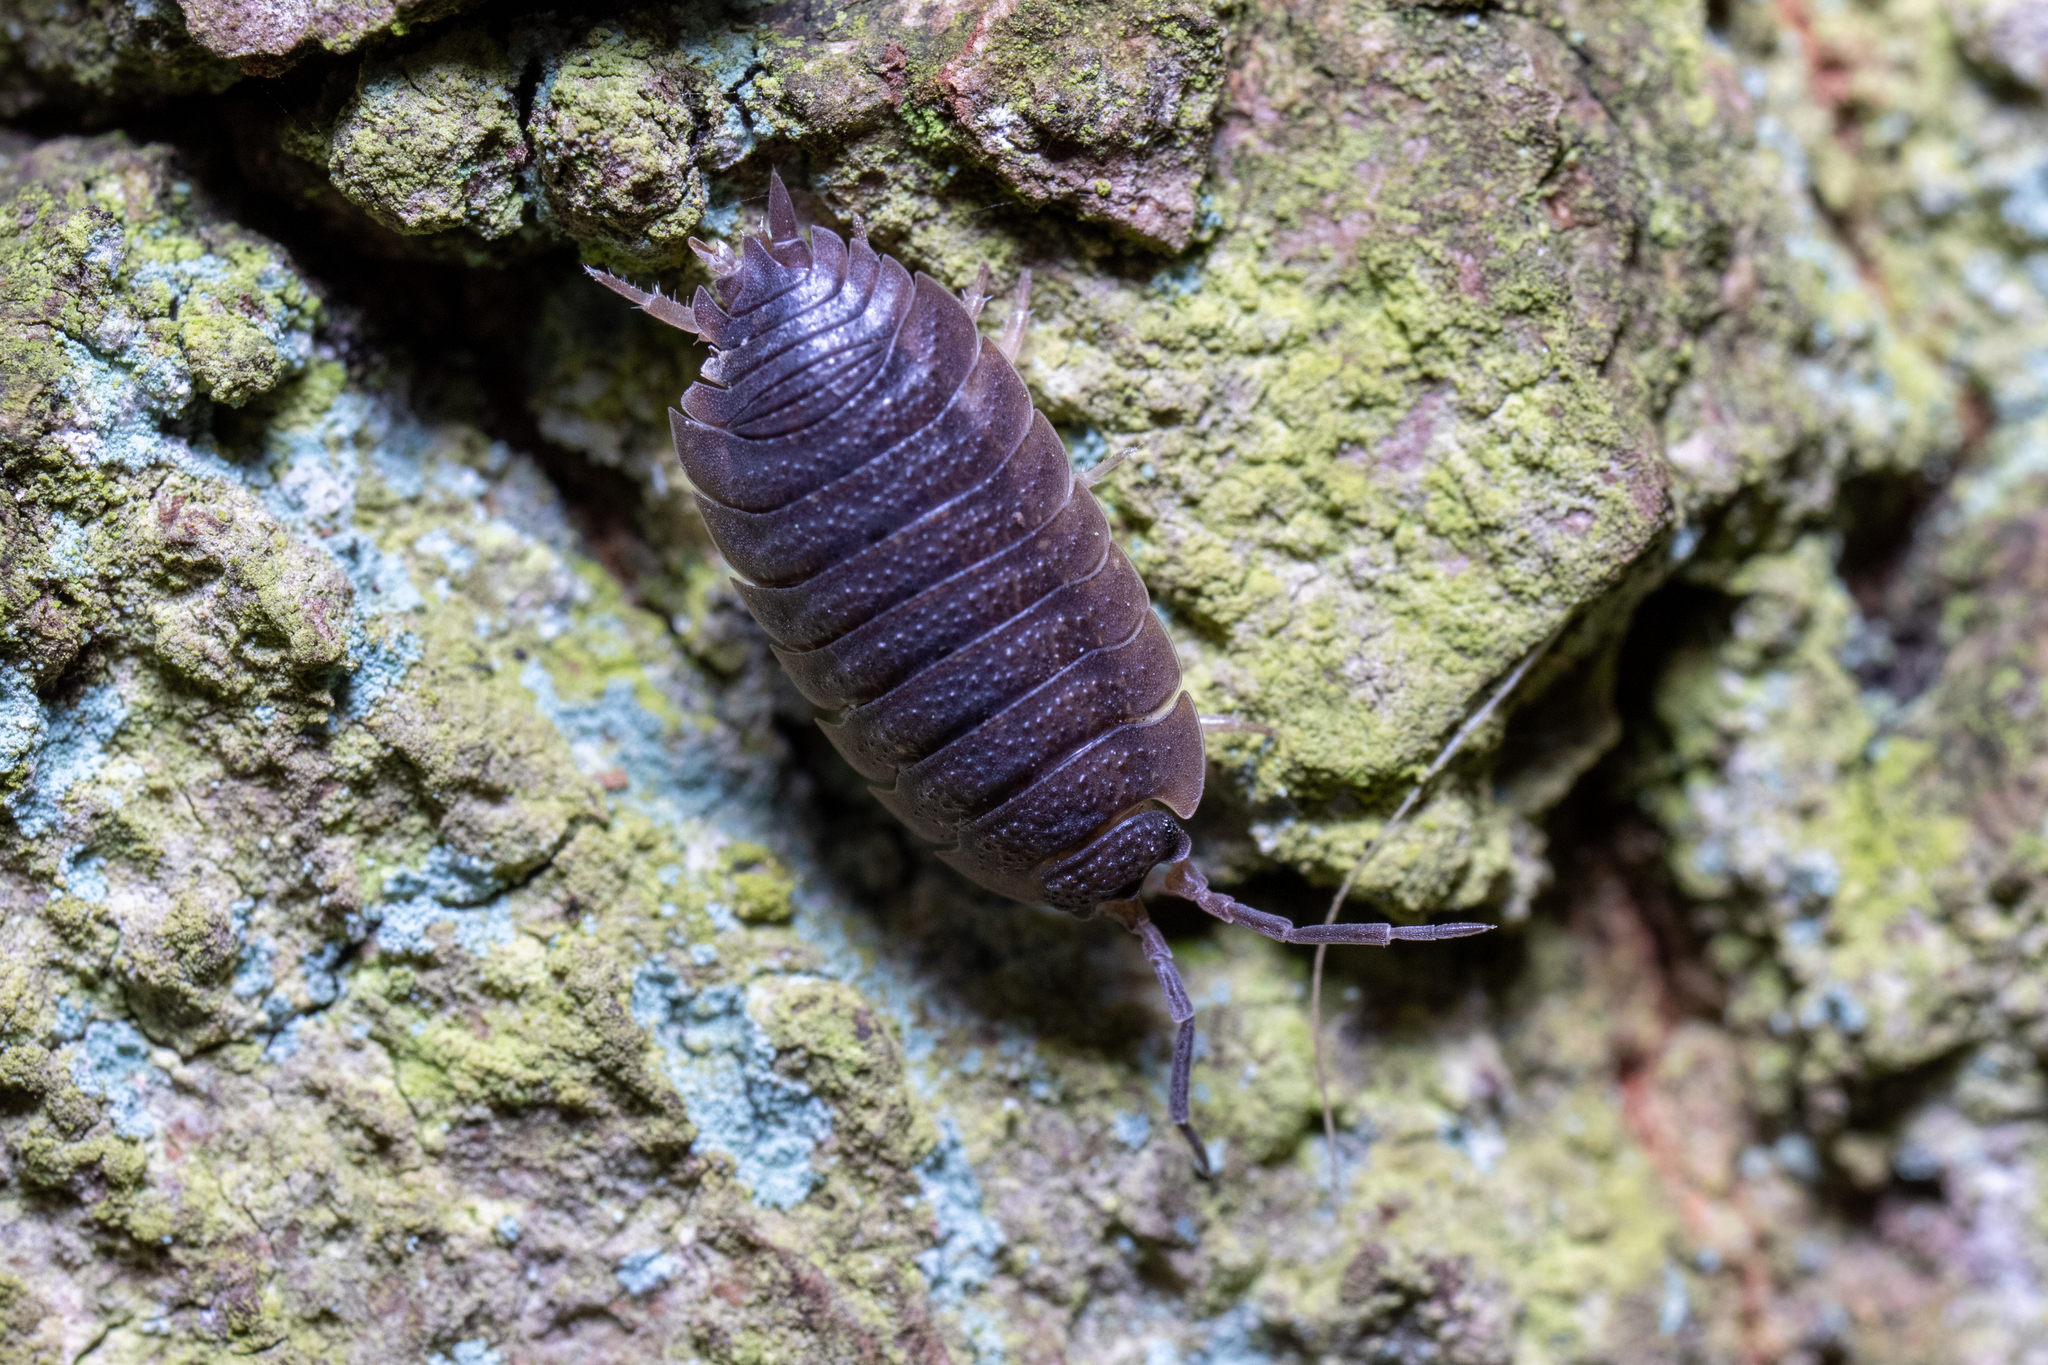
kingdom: Animalia
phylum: Arthropoda
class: Malacostraca
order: Isopoda
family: Porcellionidae
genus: Porcellio
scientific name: Porcellio scaber
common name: Common rough woodlouse
